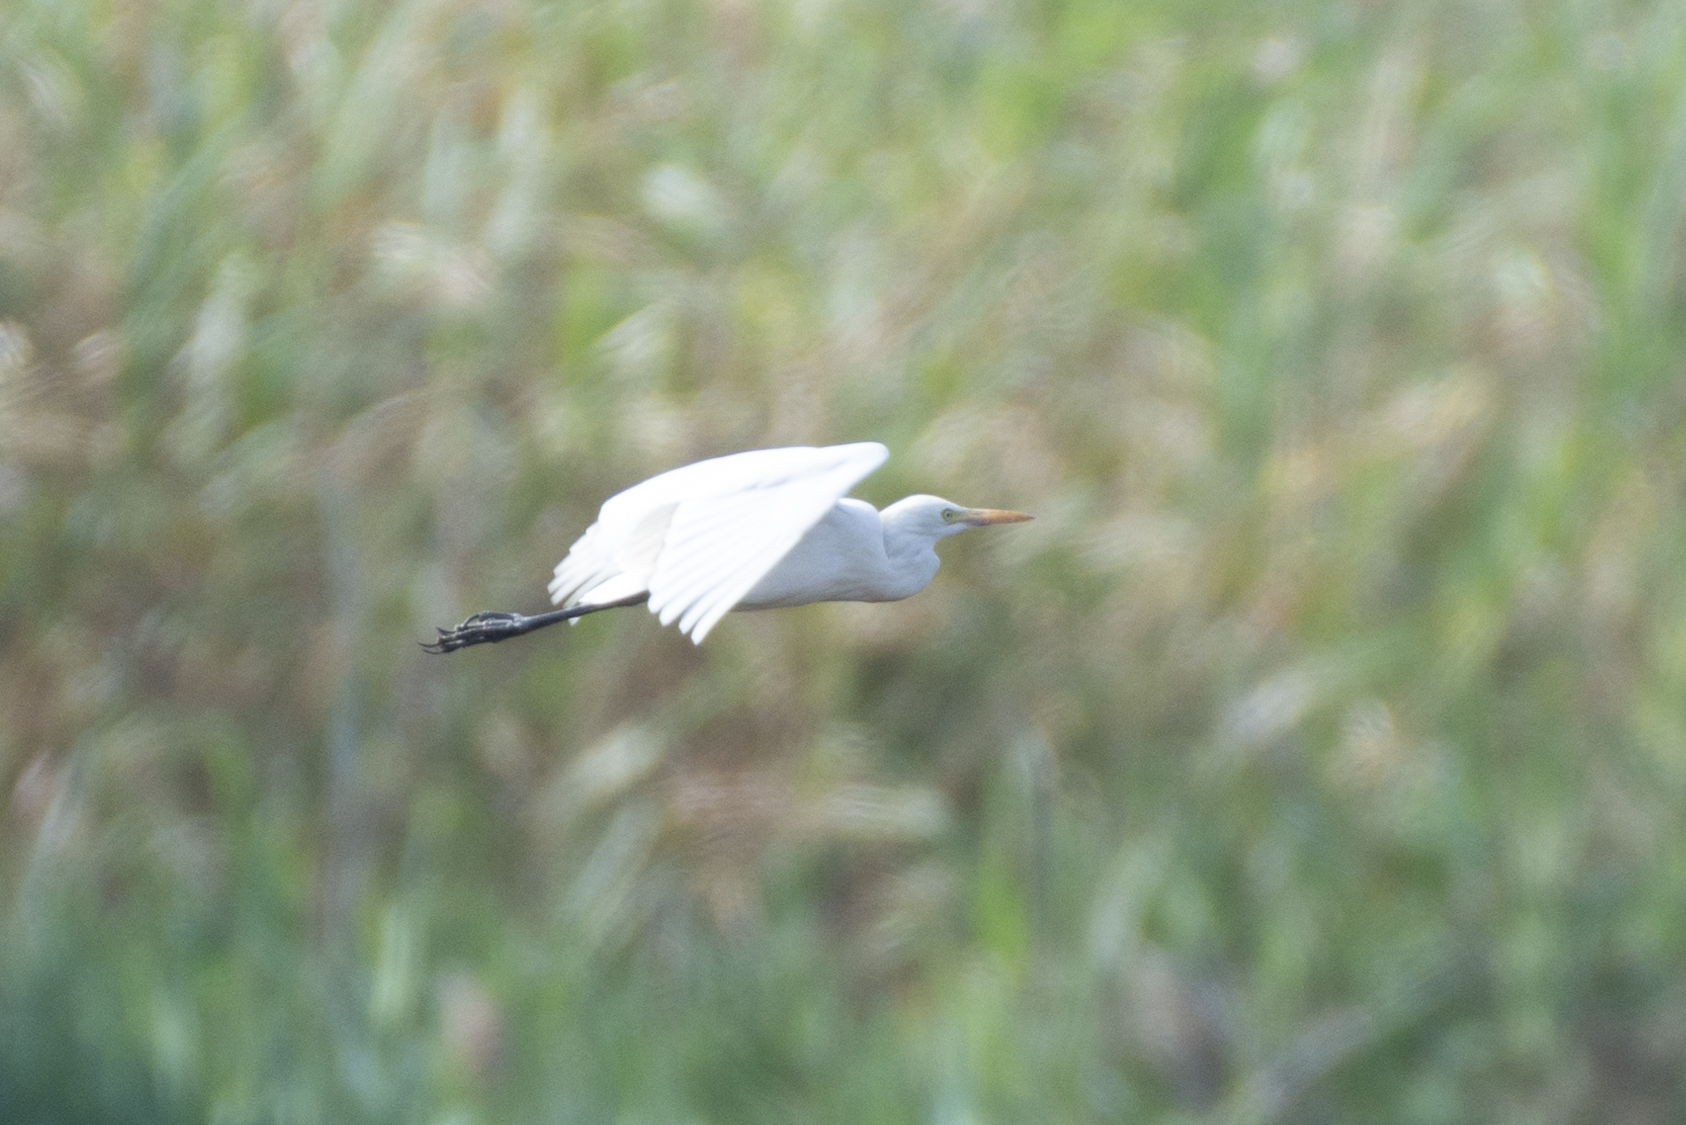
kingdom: Animalia
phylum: Chordata
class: Aves
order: Pelecaniformes
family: Ardeidae
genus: Egretta
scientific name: Egretta intermedia
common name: Intermediate egret
